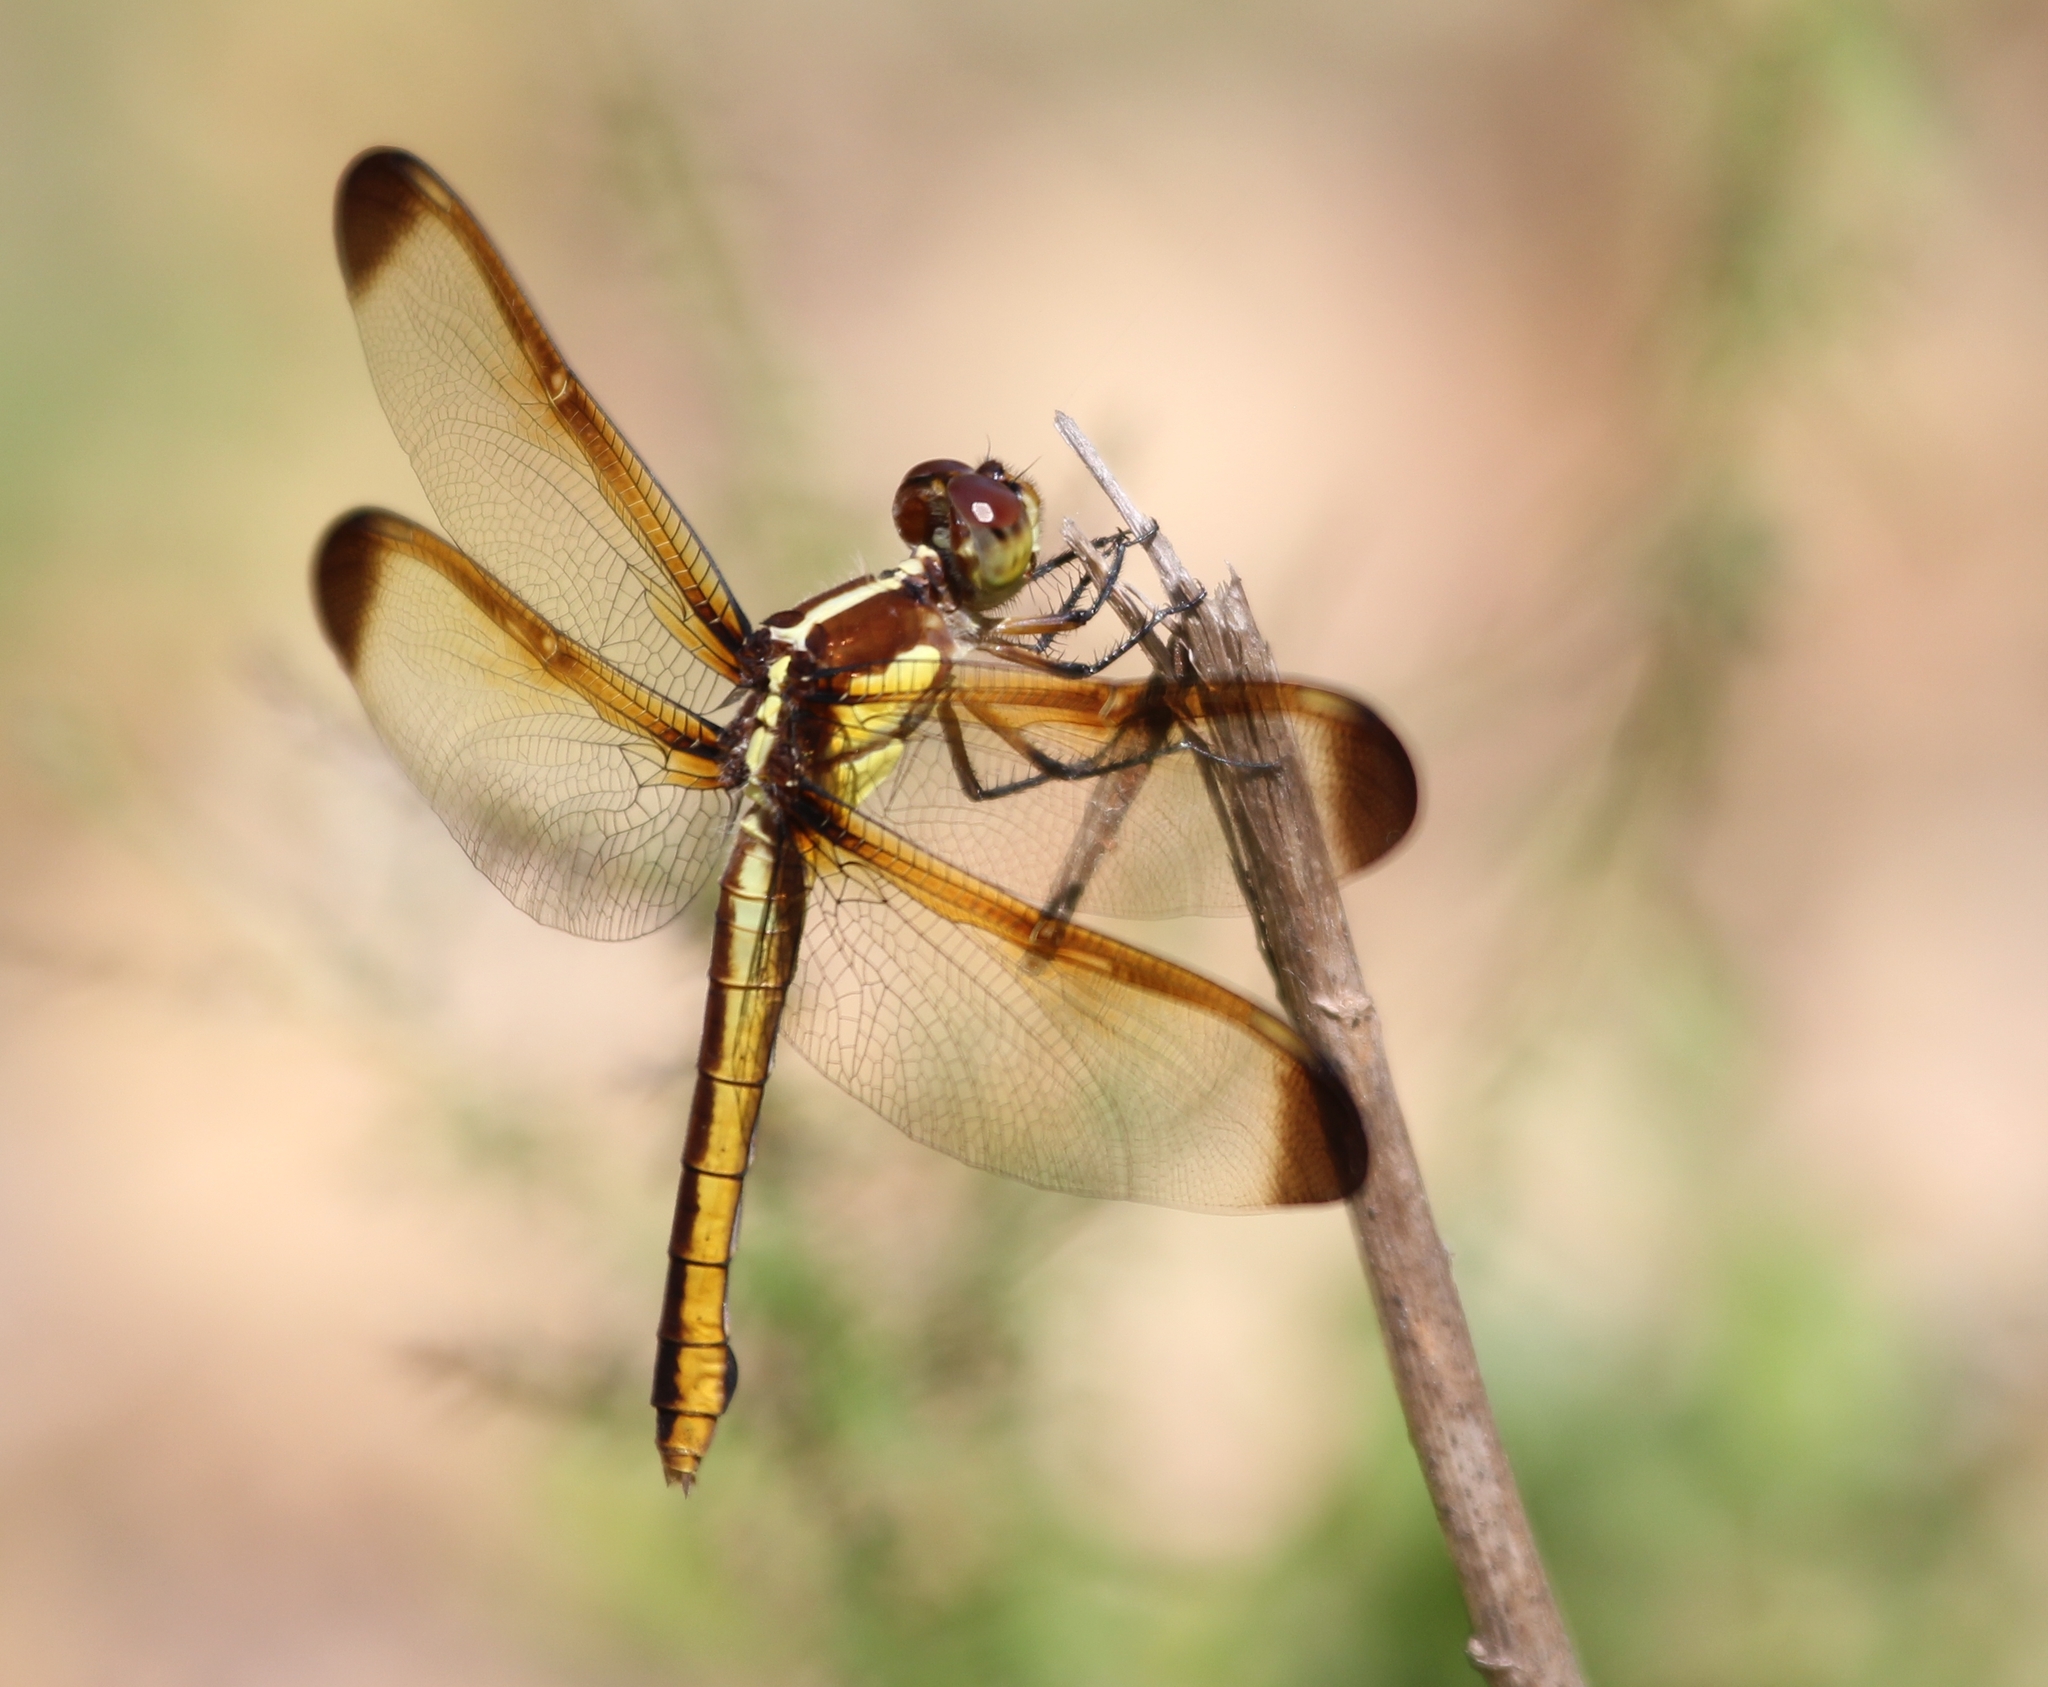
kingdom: Animalia
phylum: Arthropoda
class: Insecta
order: Odonata
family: Libellulidae
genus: Libellula
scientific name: Libellula flavida
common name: Yellow-sided skimmer
